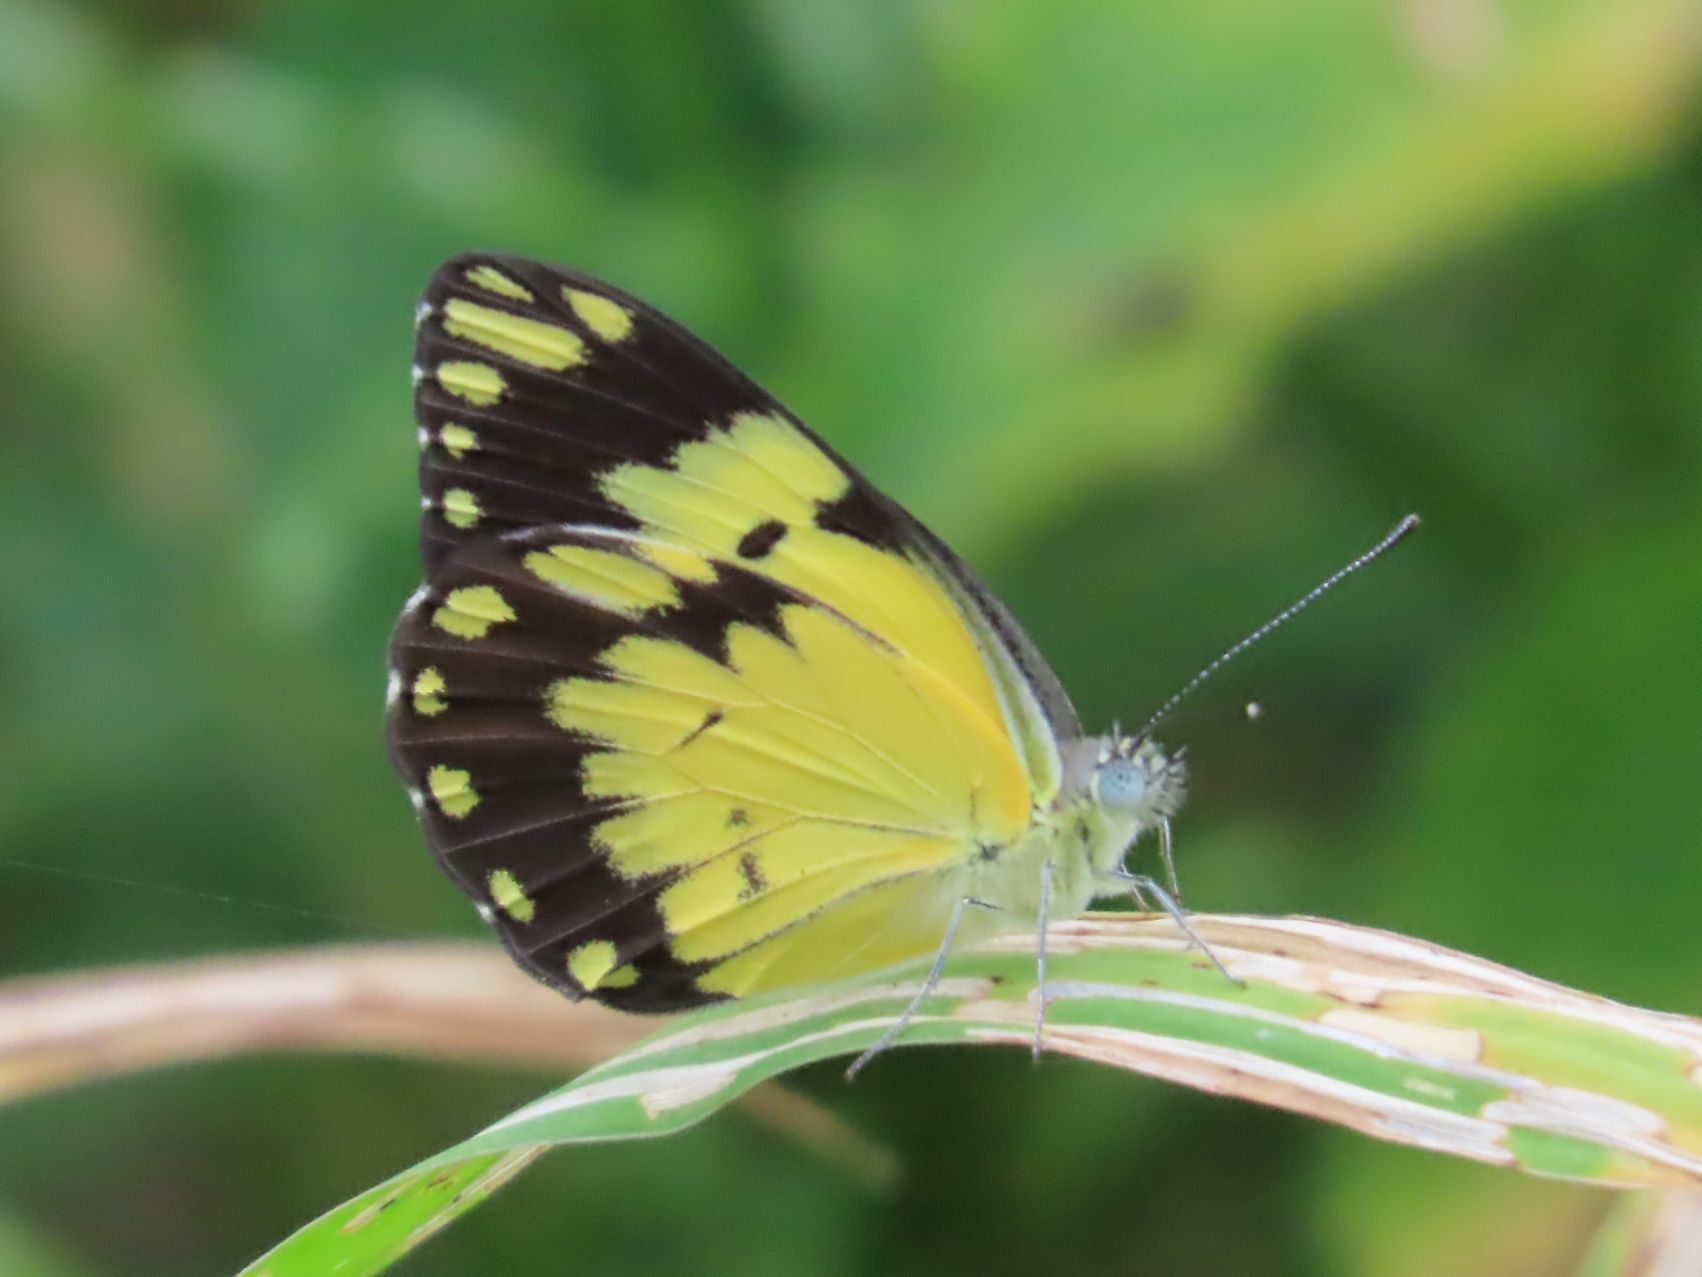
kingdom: Animalia
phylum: Arthropoda
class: Insecta
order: Lepidoptera
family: Pieridae
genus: Belenois
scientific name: Belenois creona
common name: African caper white
